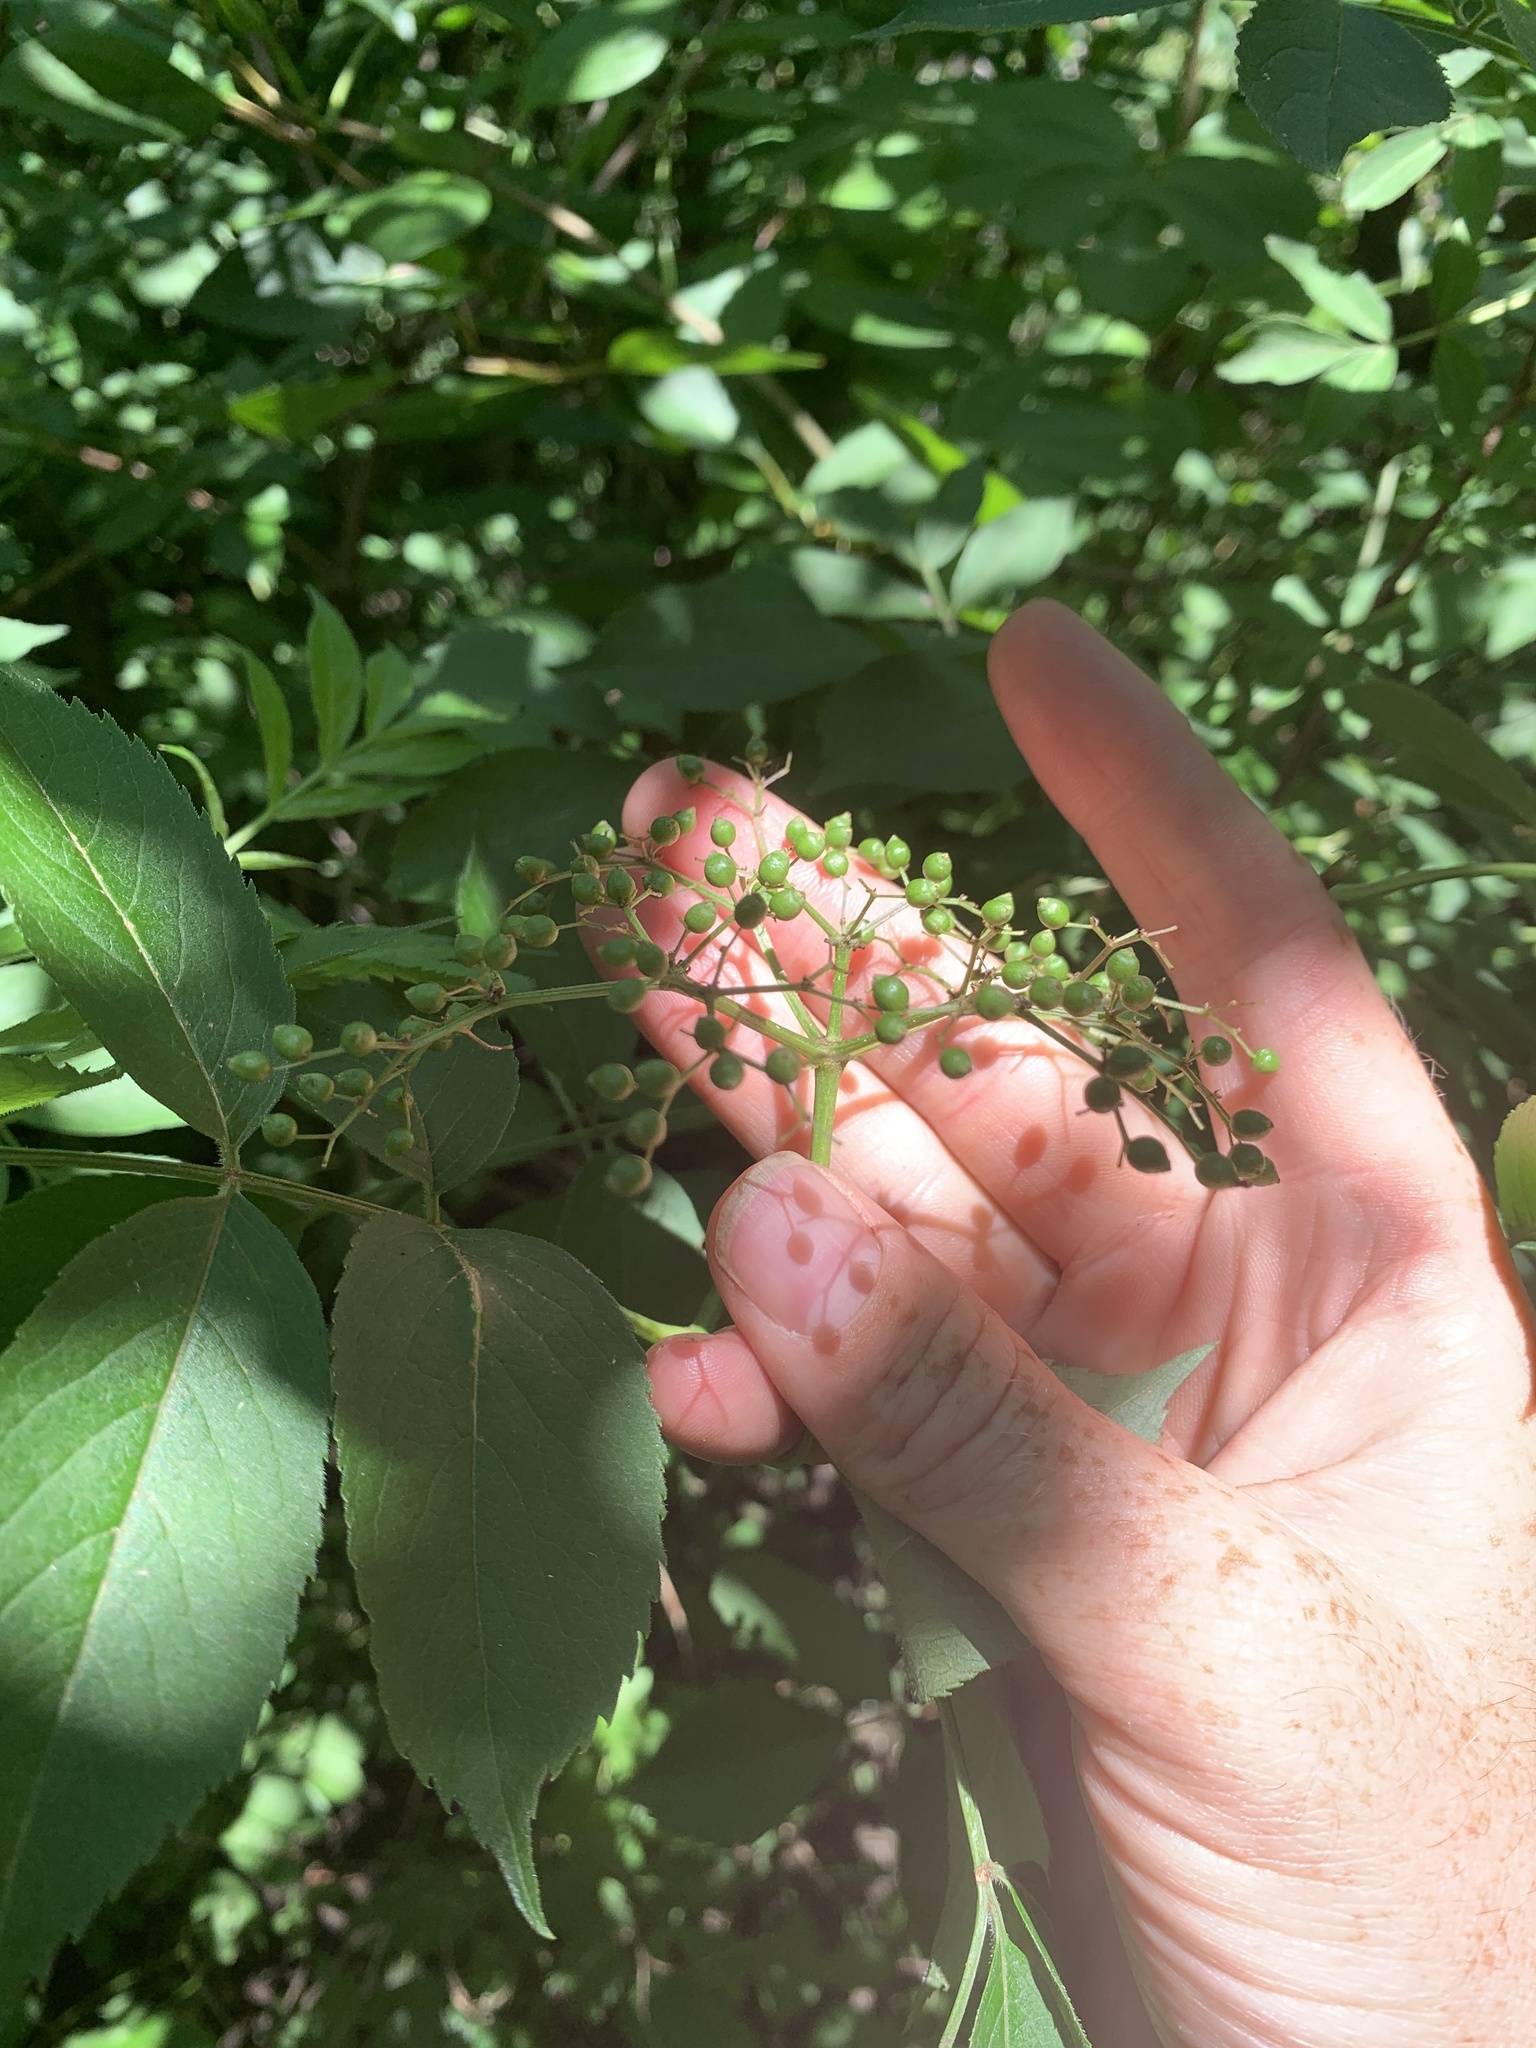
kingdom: Plantae
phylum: Tracheophyta
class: Magnoliopsida
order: Dipsacales
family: Viburnaceae
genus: Sambucus
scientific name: Sambucus canadensis
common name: American elder
